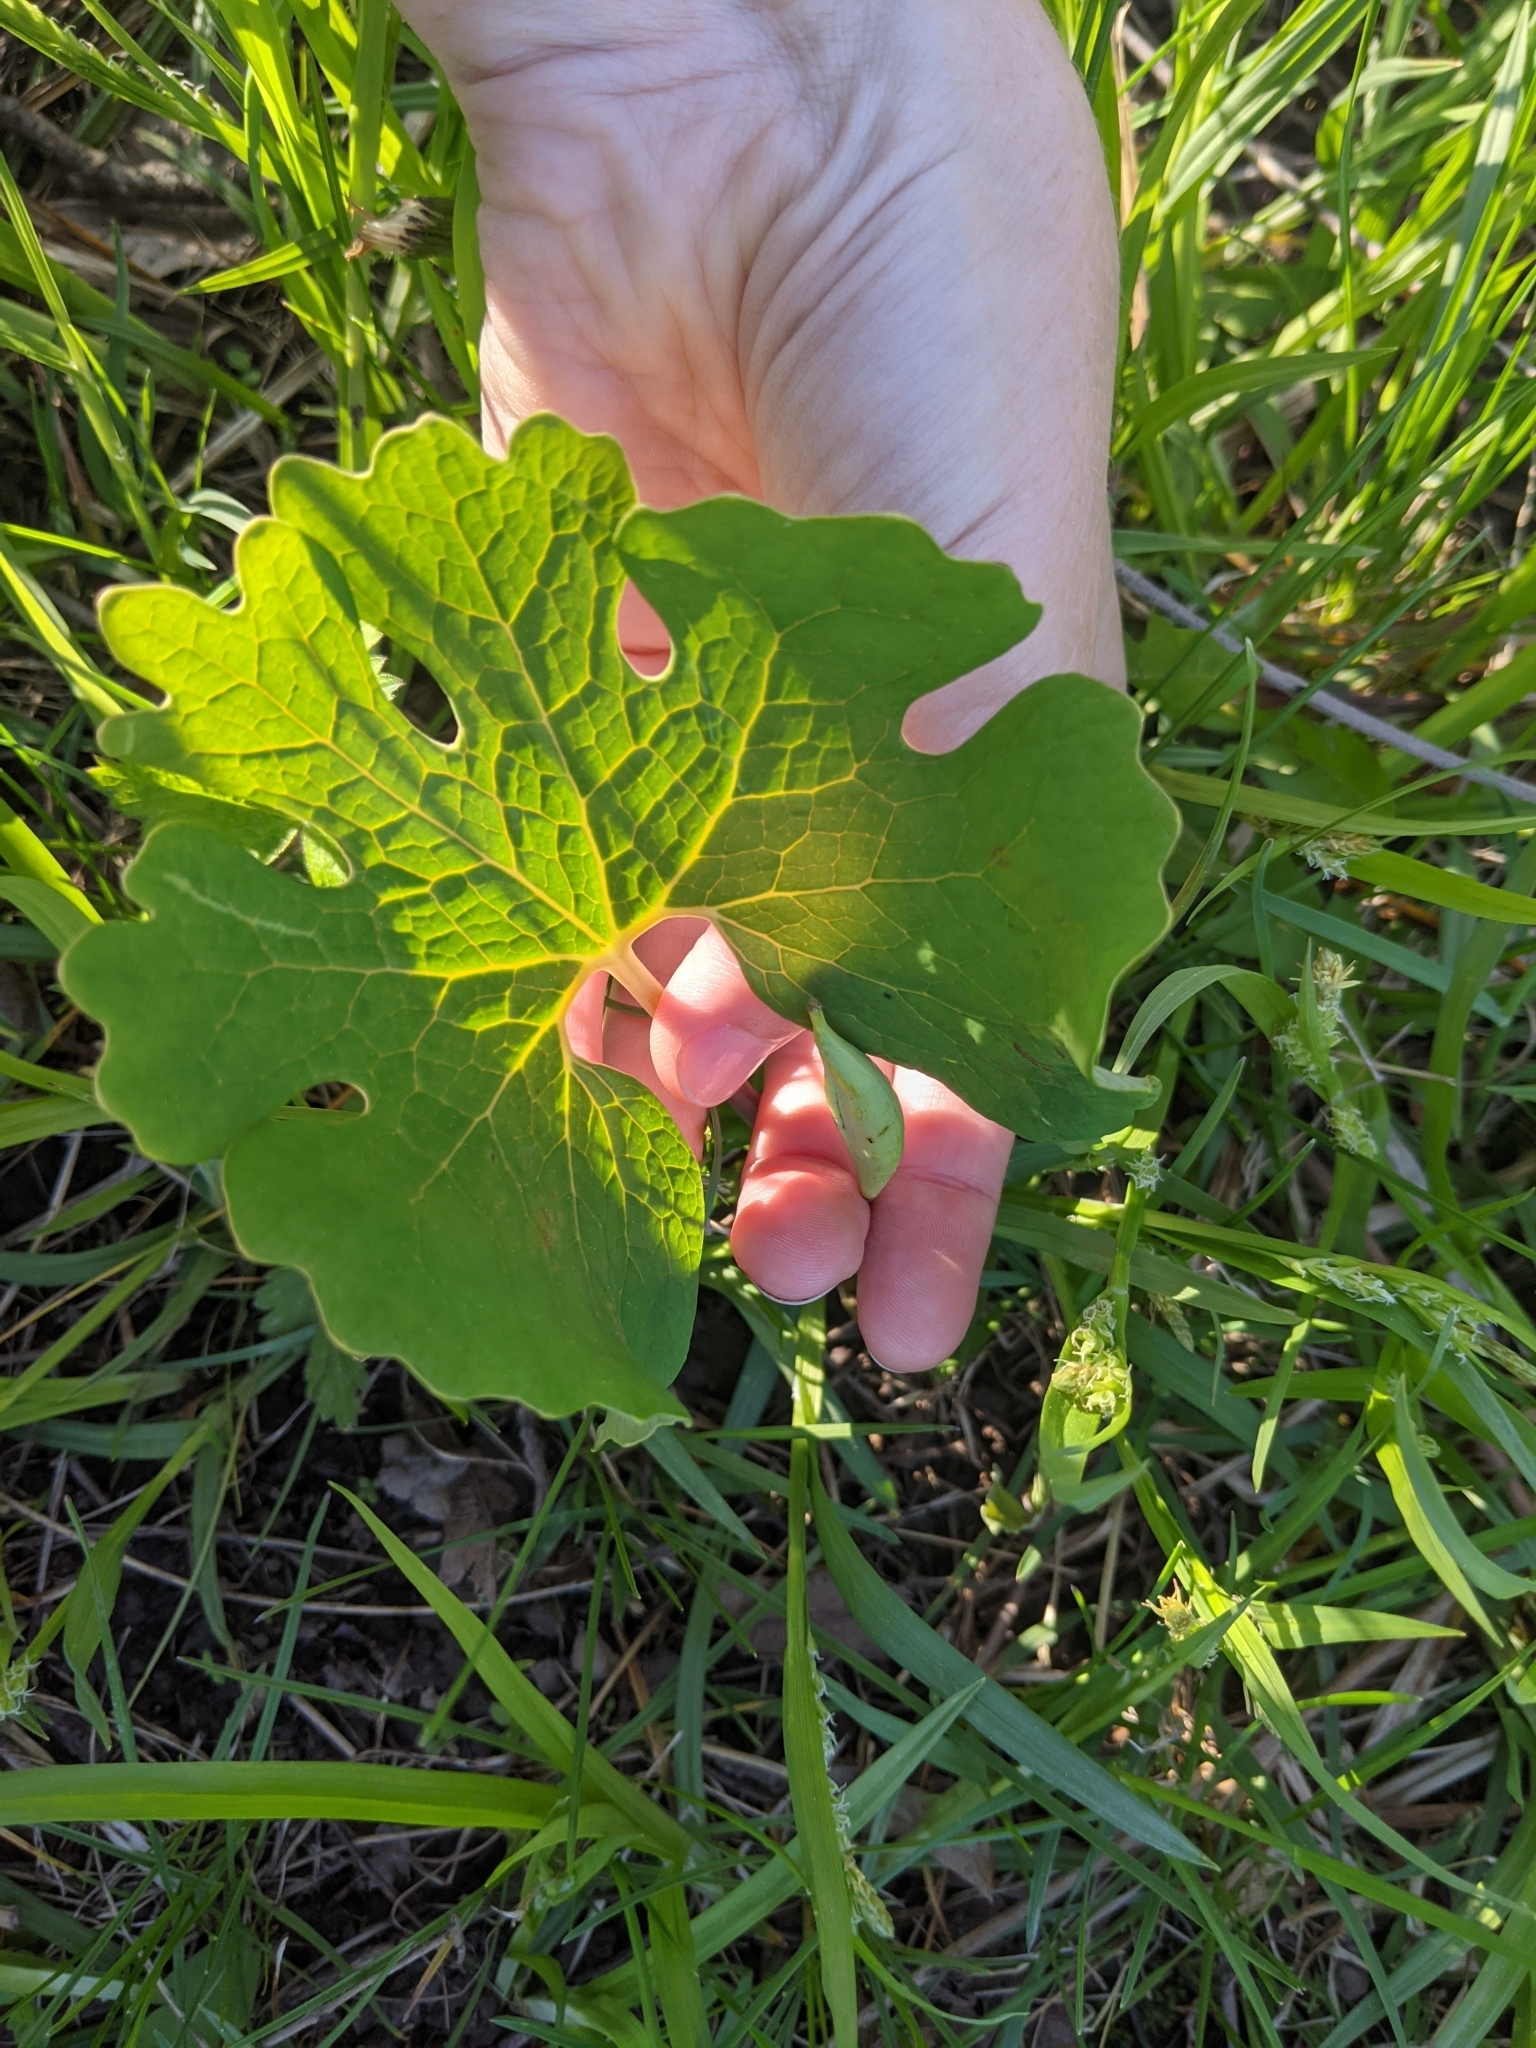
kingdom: Plantae
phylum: Tracheophyta
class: Magnoliopsida
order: Ranunculales
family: Papaveraceae
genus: Sanguinaria
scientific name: Sanguinaria canadensis
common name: Bloodroot
